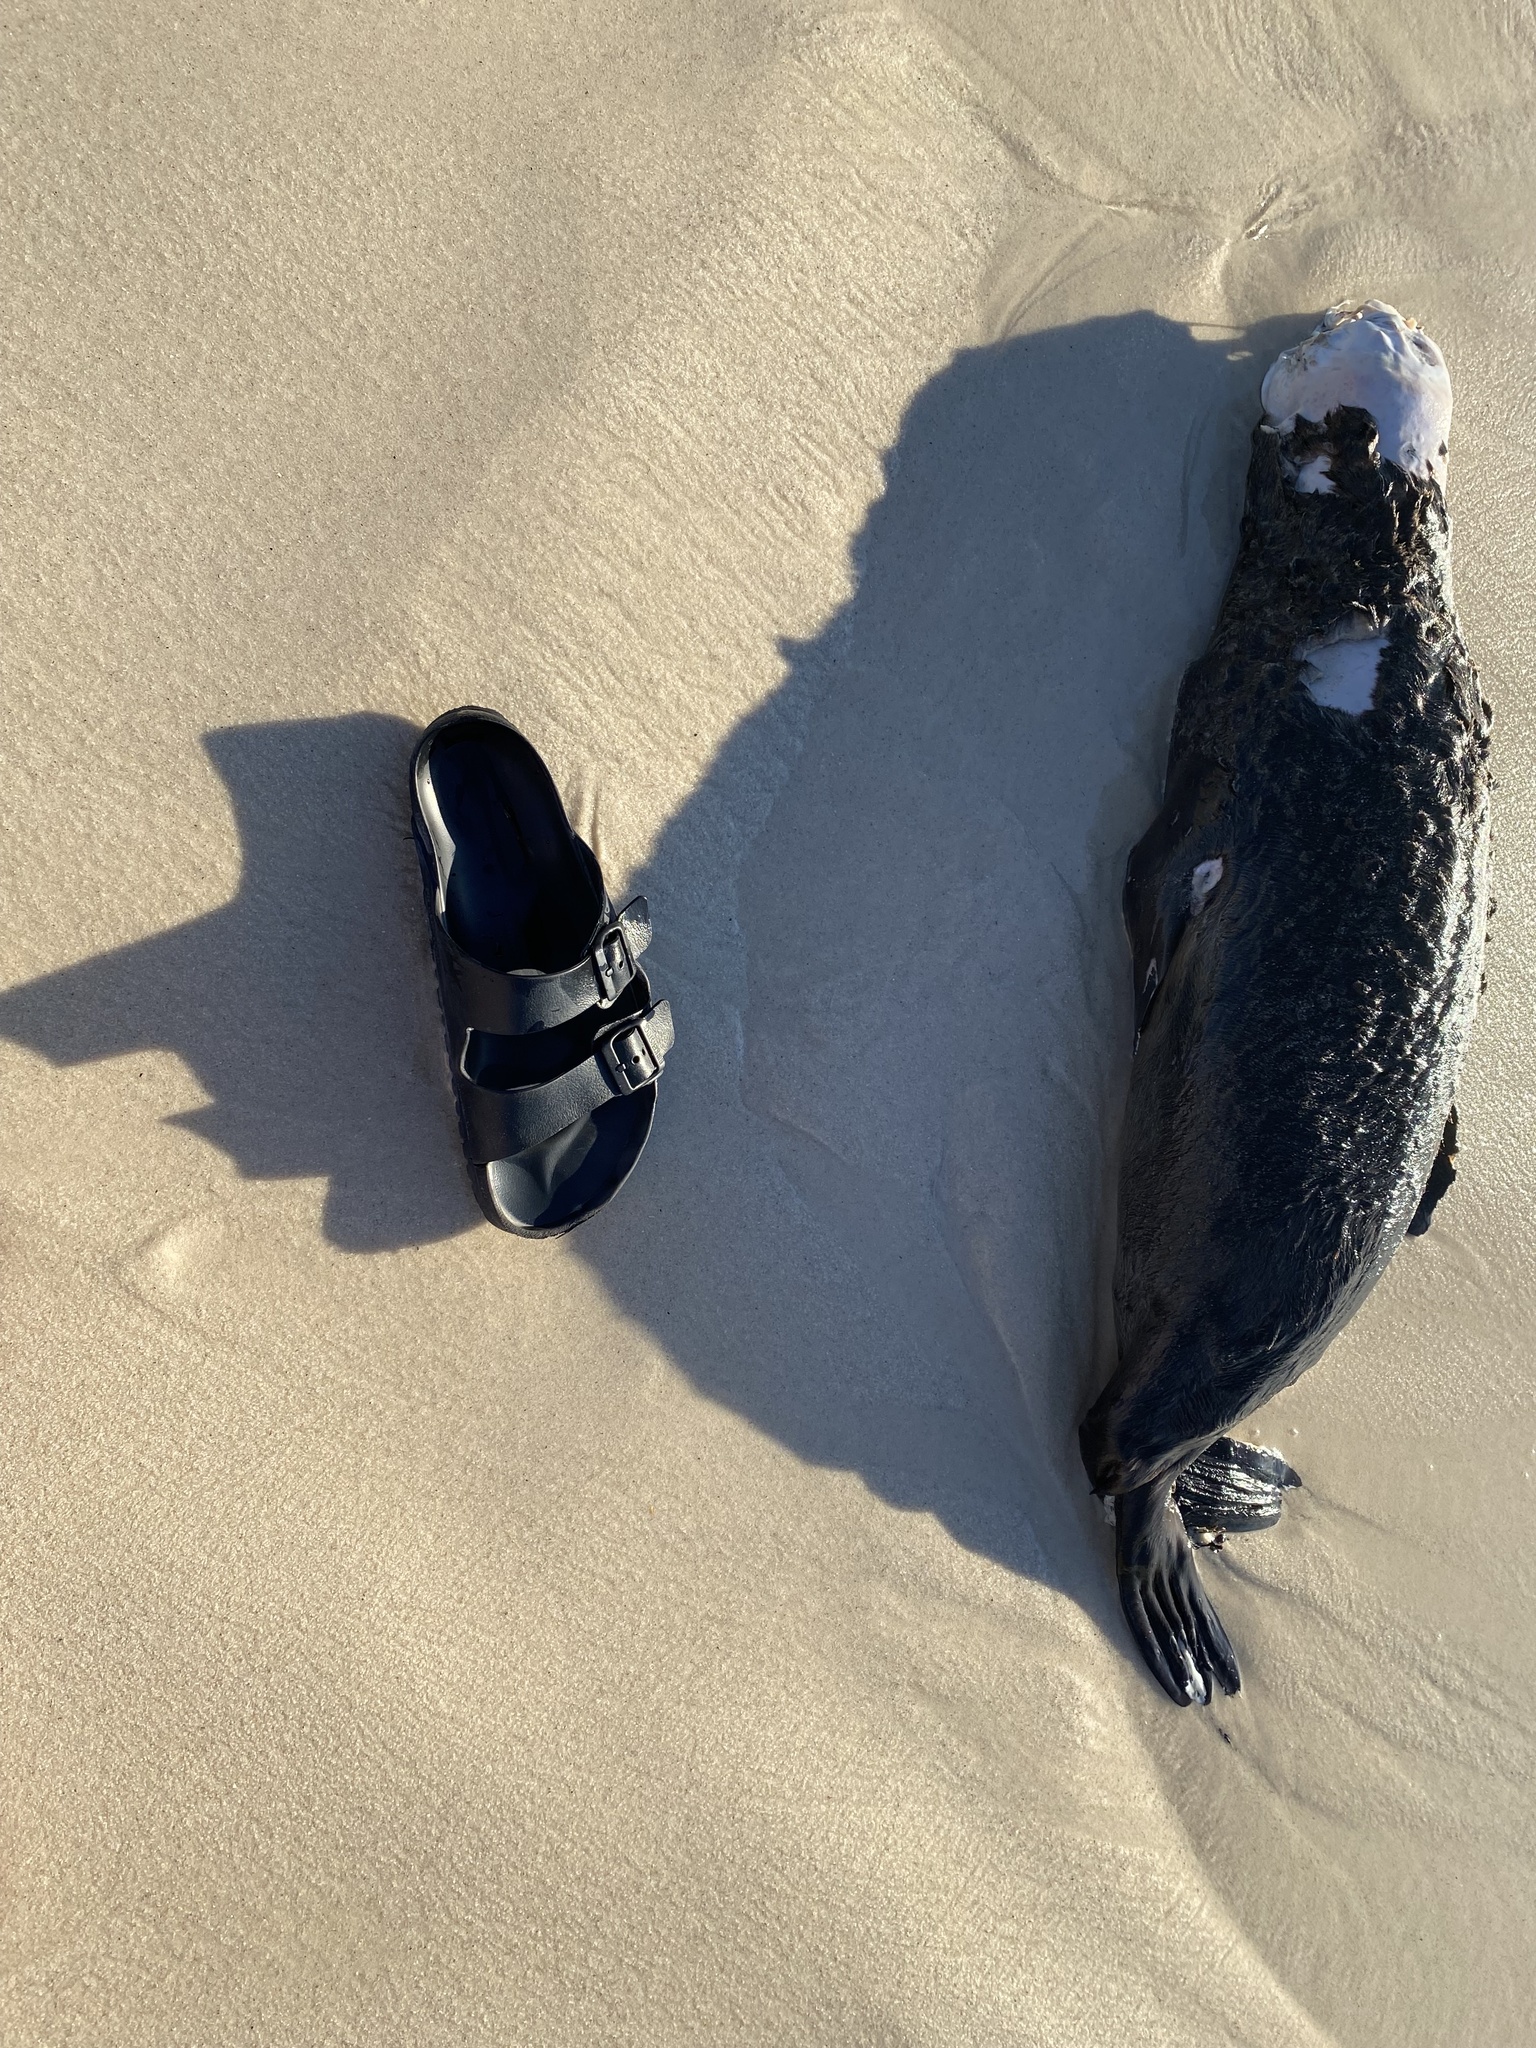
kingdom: Animalia
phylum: Chordata
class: Mammalia
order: Carnivora
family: Otariidae
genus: Arctocephalus
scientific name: Arctocephalus pusillus
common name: Brown fur seal
